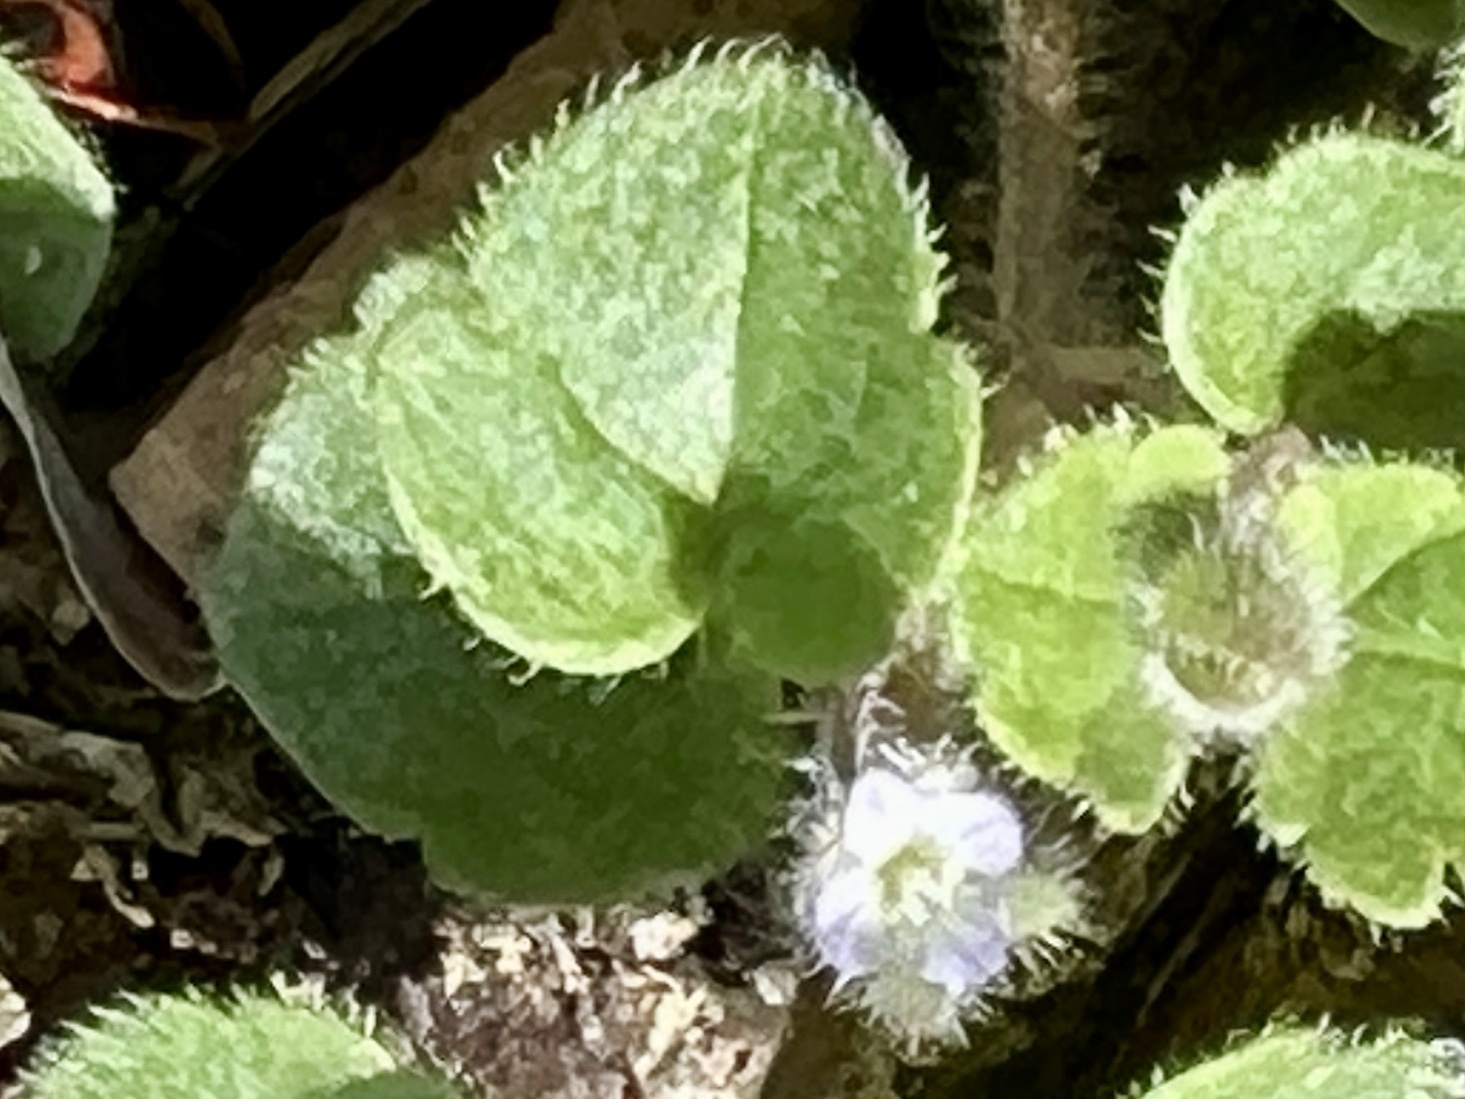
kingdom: Plantae
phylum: Tracheophyta
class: Magnoliopsida
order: Lamiales
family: Plantaginaceae
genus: Veronica
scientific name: Veronica sublobata
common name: False ivy-leaved speedwell
